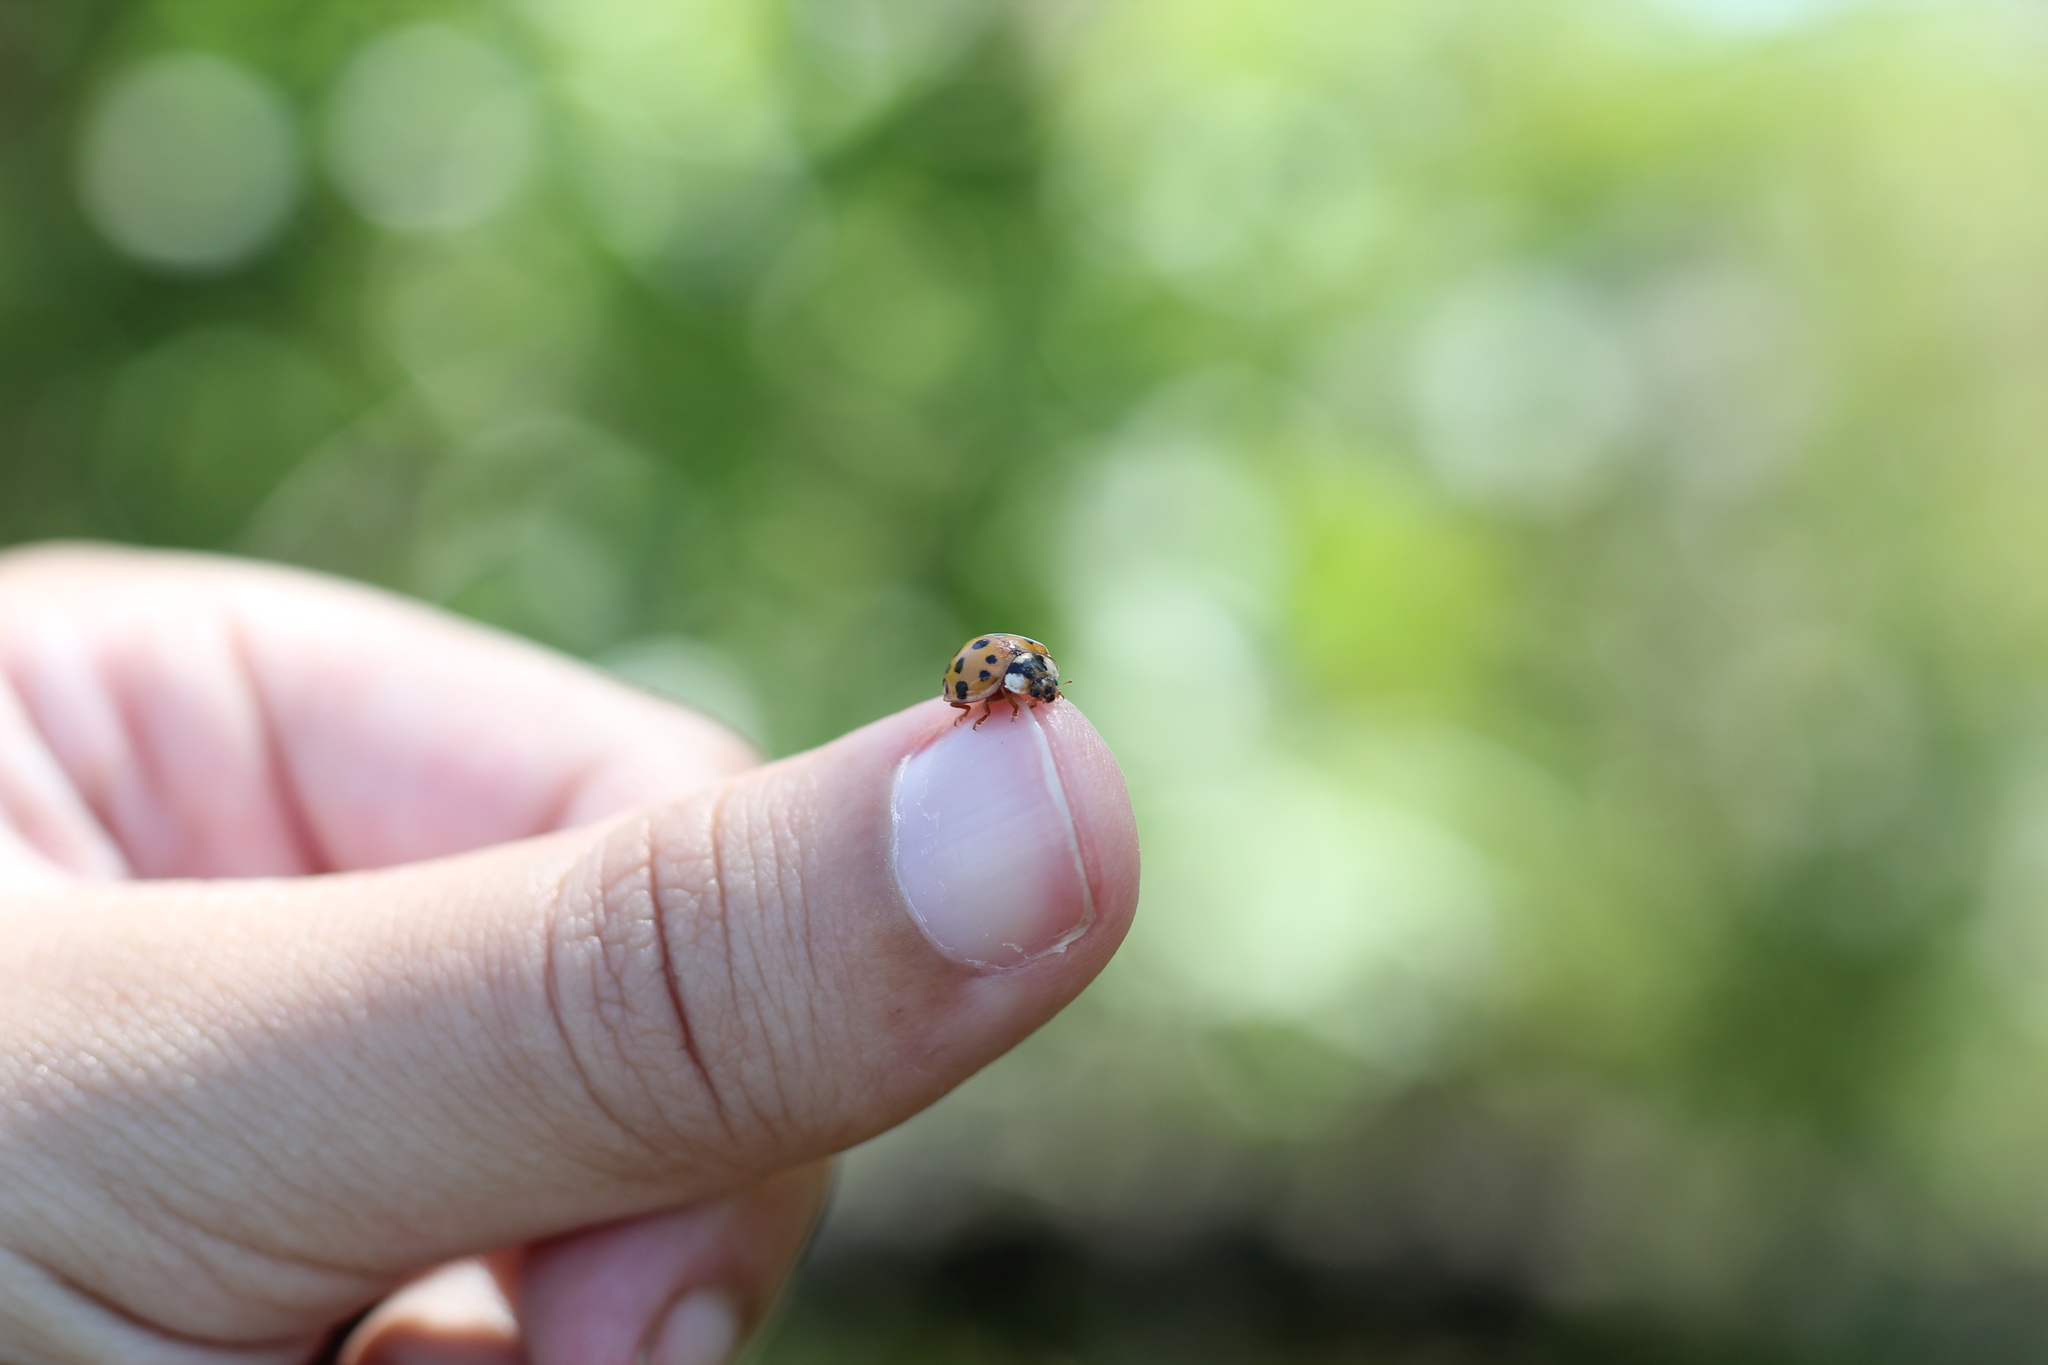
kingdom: Animalia
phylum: Arthropoda
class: Insecta
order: Coleoptera
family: Coccinellidae
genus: Harmonia
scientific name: Harmonia axyridis
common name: Harlequin ladybird
